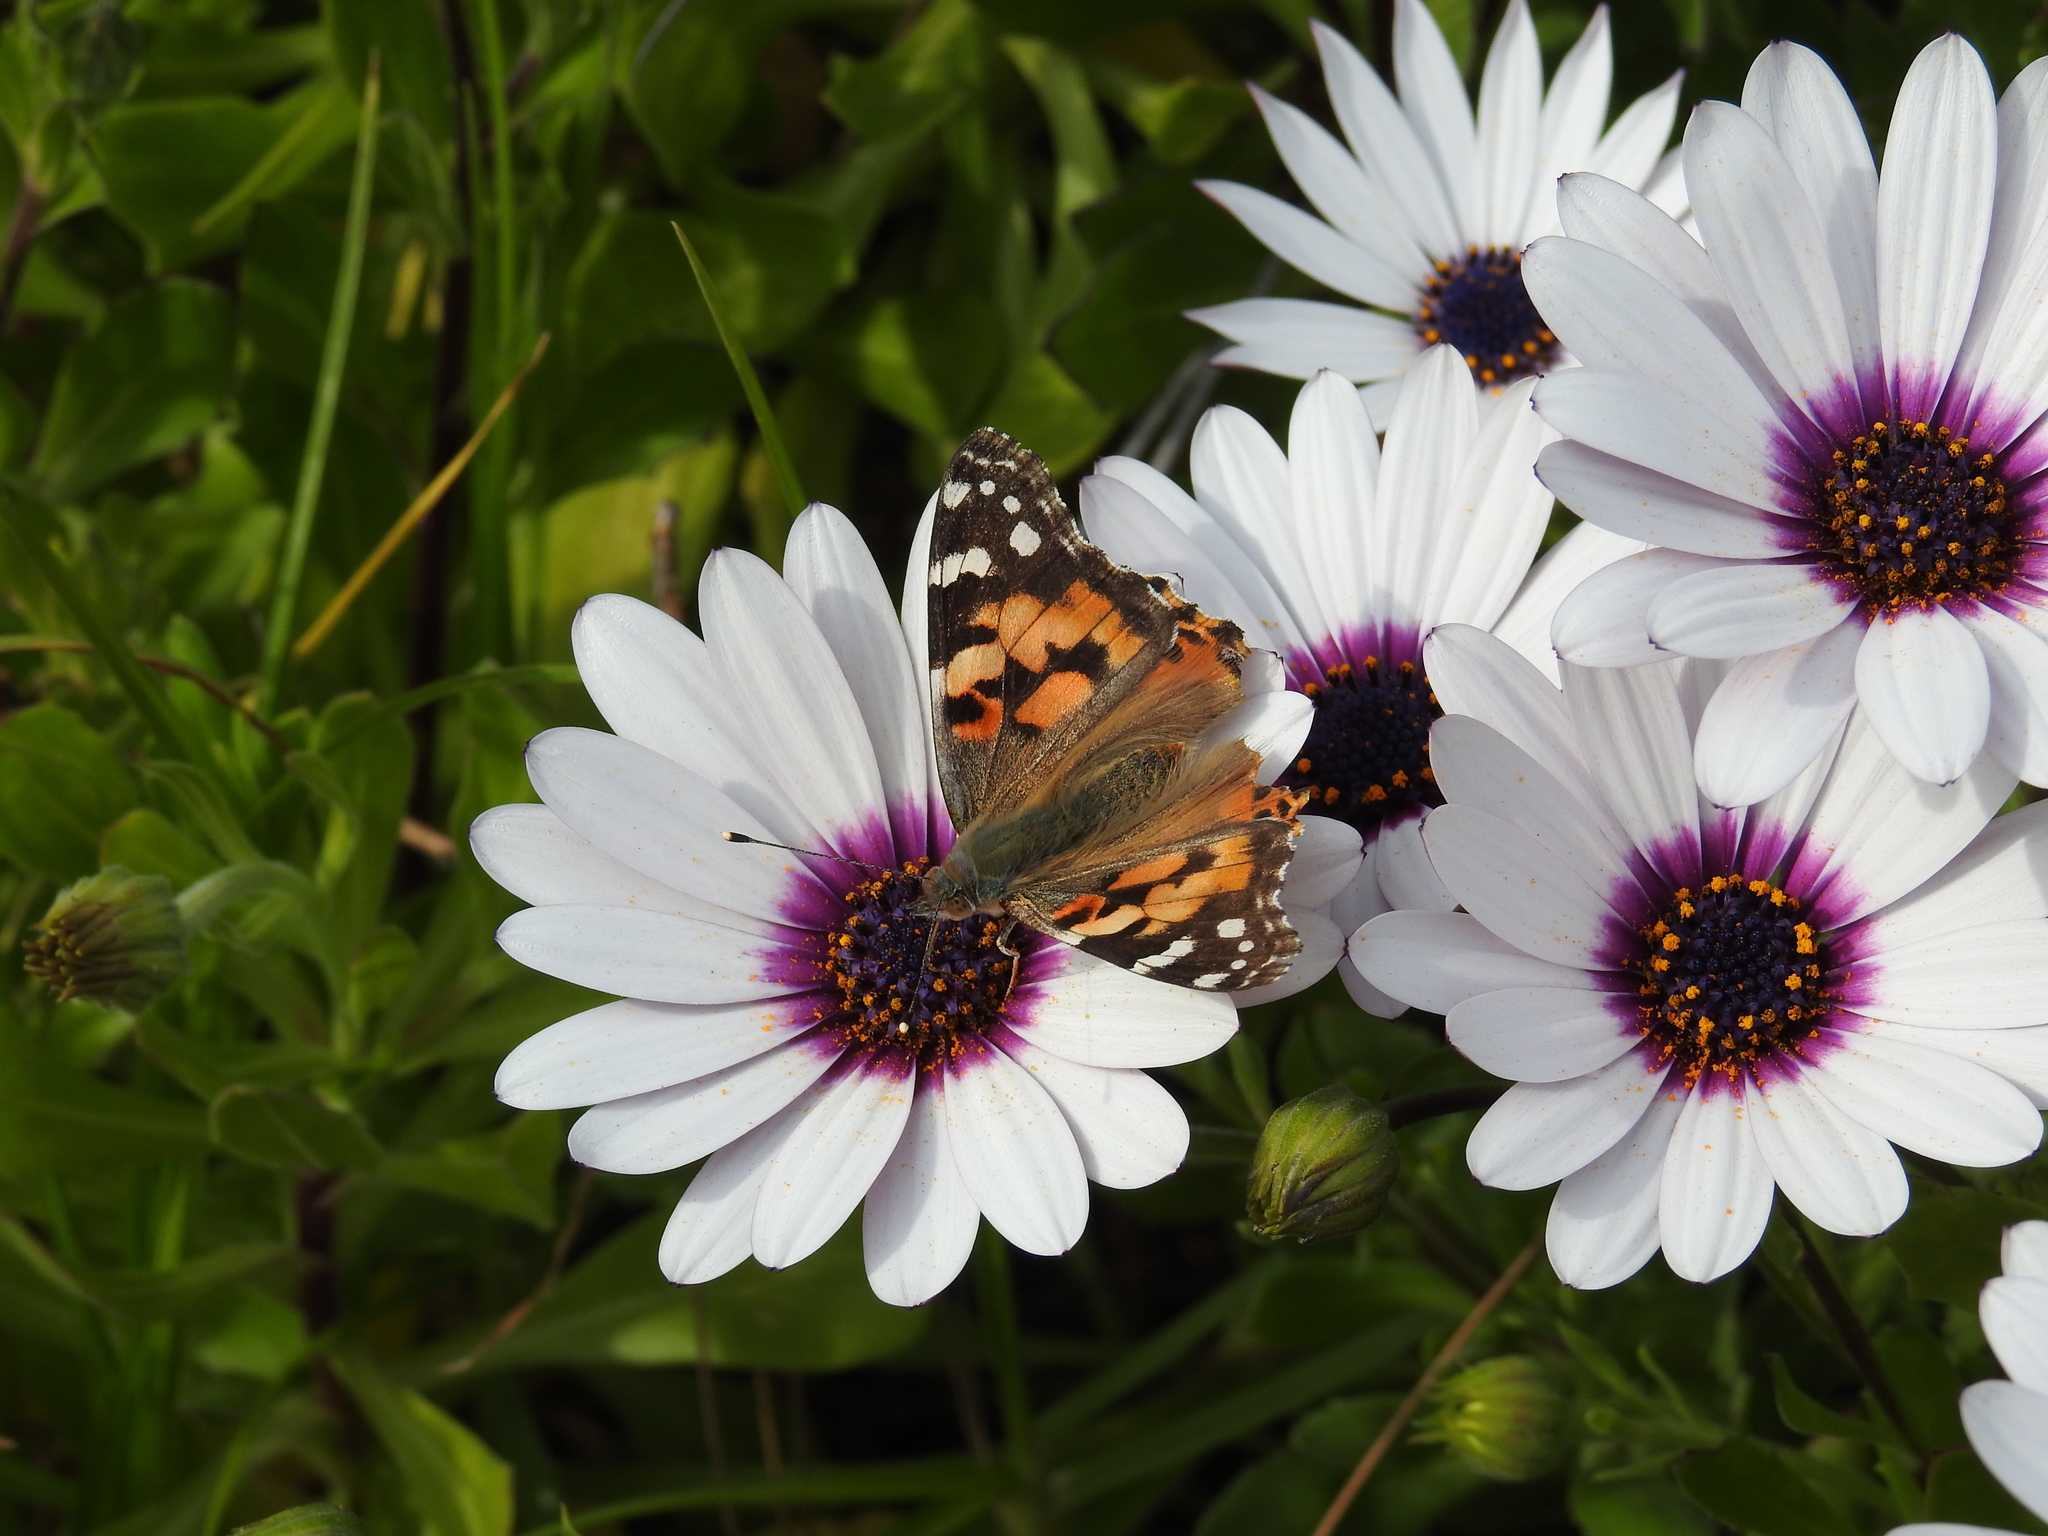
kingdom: Animalia
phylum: Arthropoda
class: Insecta
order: Lepidoptera
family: Nymphalidae
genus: Vanessa
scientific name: Vanessa cardui
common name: Painted lady
